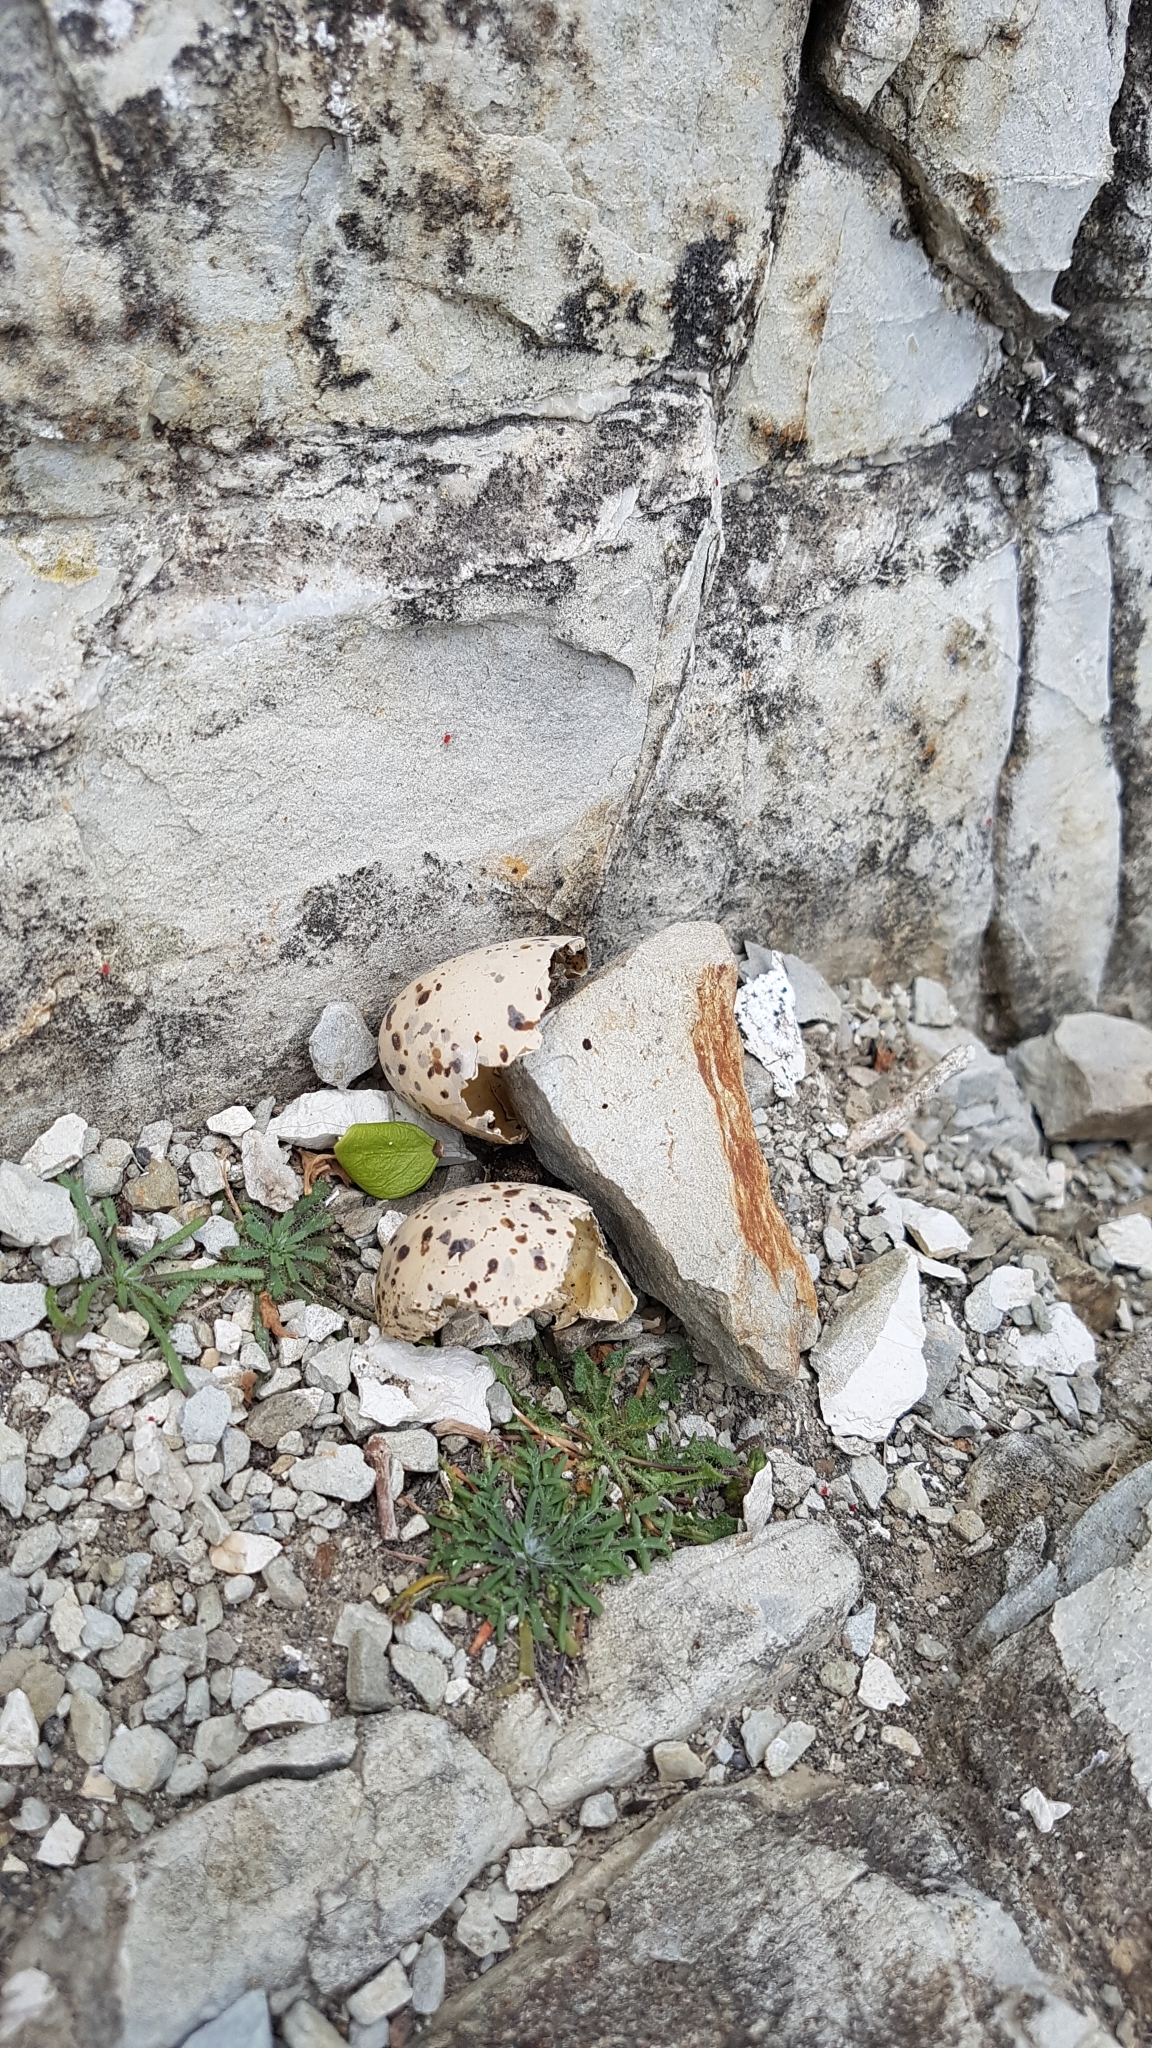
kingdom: Animalia
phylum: Chordata
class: Aves
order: Charadriiformes
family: Laridae
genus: Chroicocephalus
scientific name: Chroicocephalus novaehollandiae
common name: Silver gull
